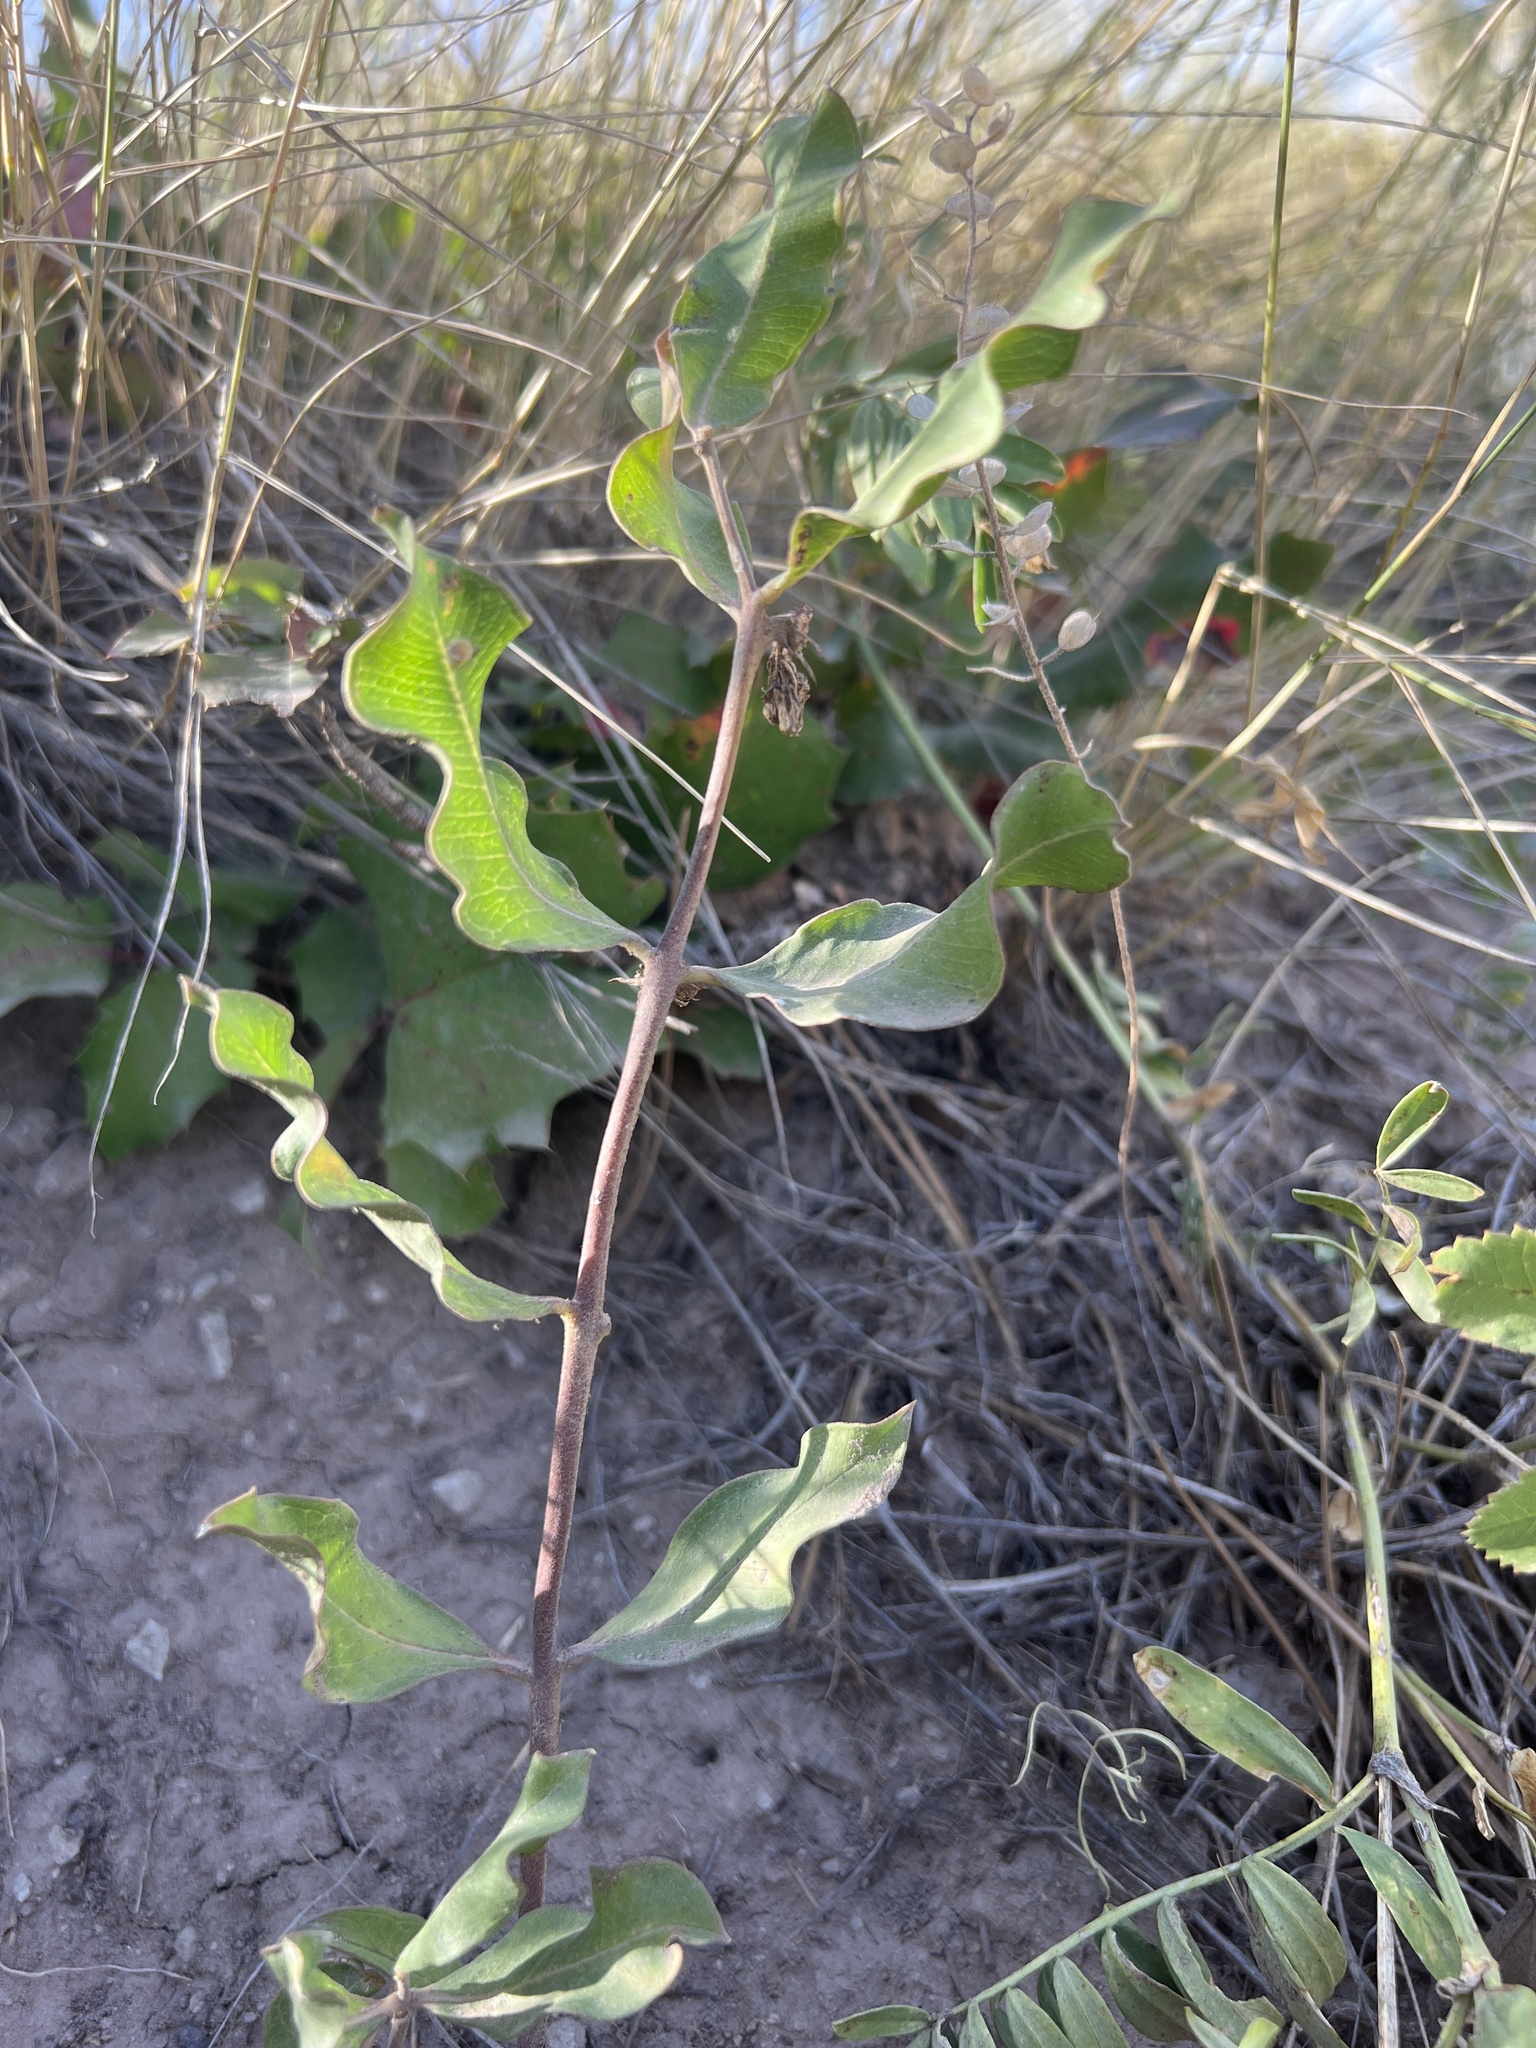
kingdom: Plantae
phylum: Tracheophyta
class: Magnoliopsida
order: Gentianales
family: Apocynaceae
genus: Asclepias
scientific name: Asclepias viridiflora
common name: Green comet milkweed
